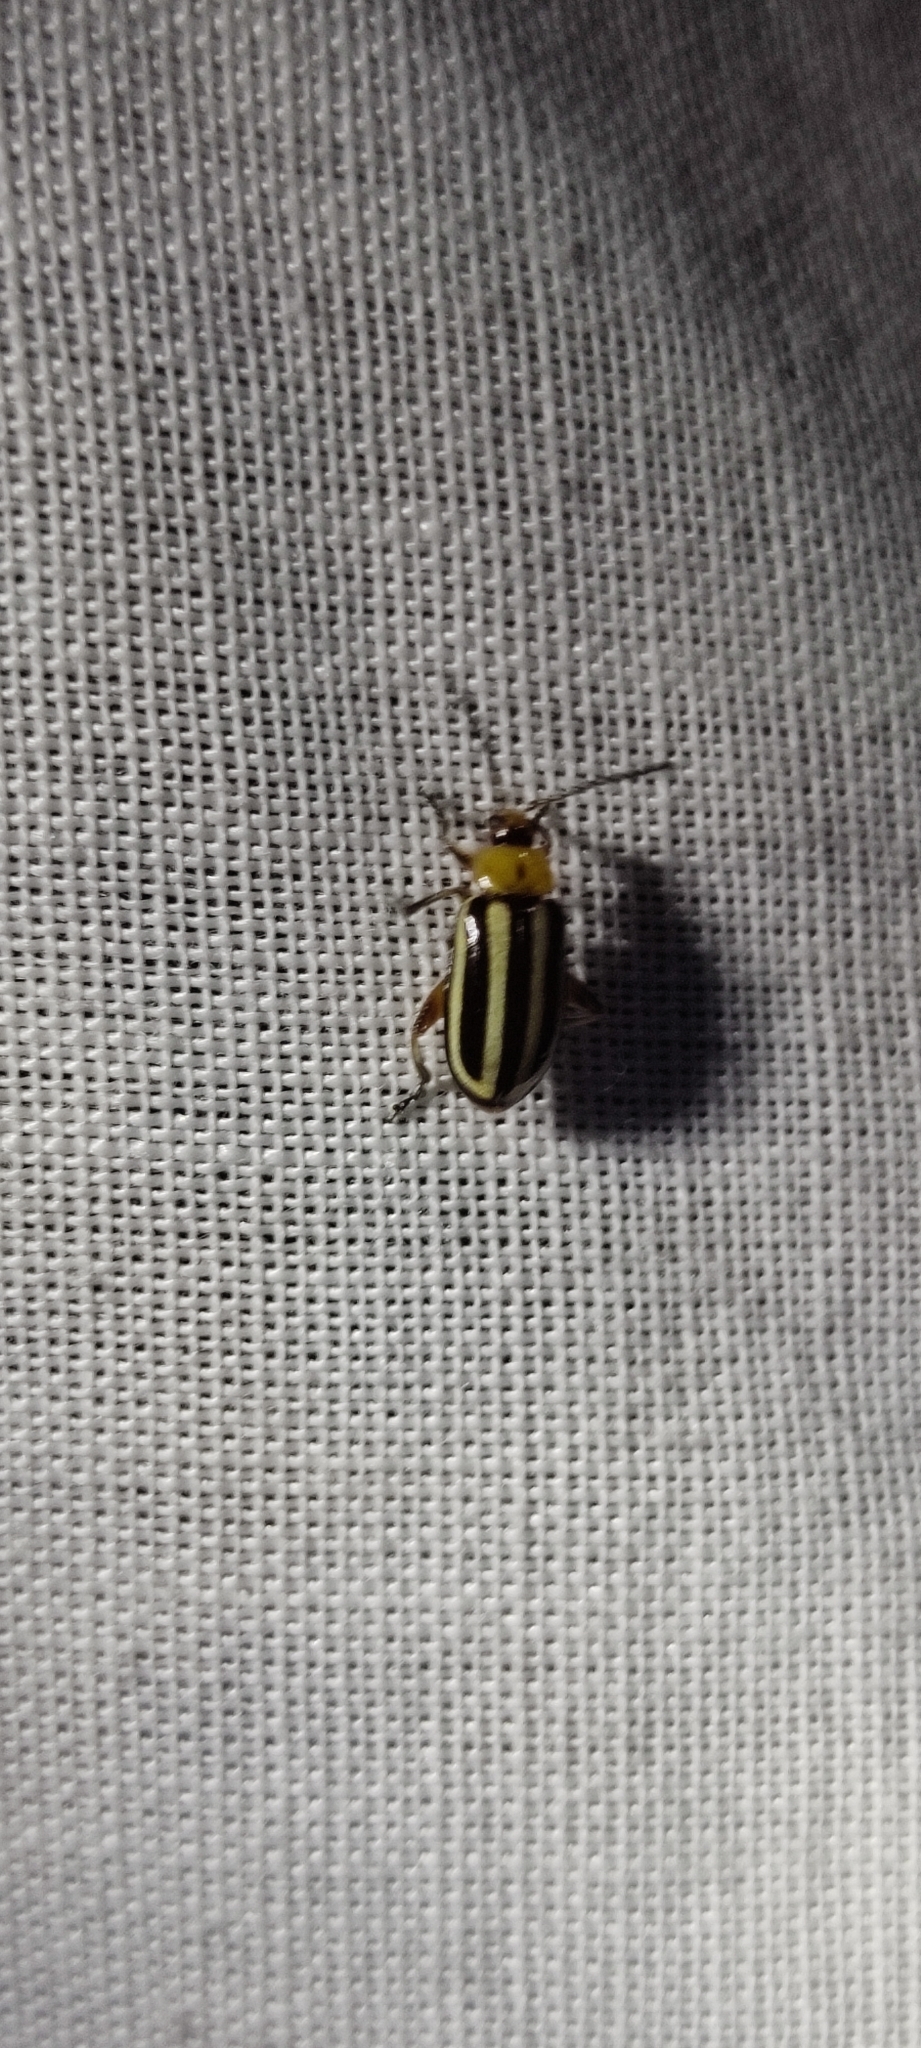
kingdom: Animalia
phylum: Arthropoda
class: Insecta
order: Coleoptera
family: Chrysomelidae
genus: Disonycha
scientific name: Disonycha glabrata
